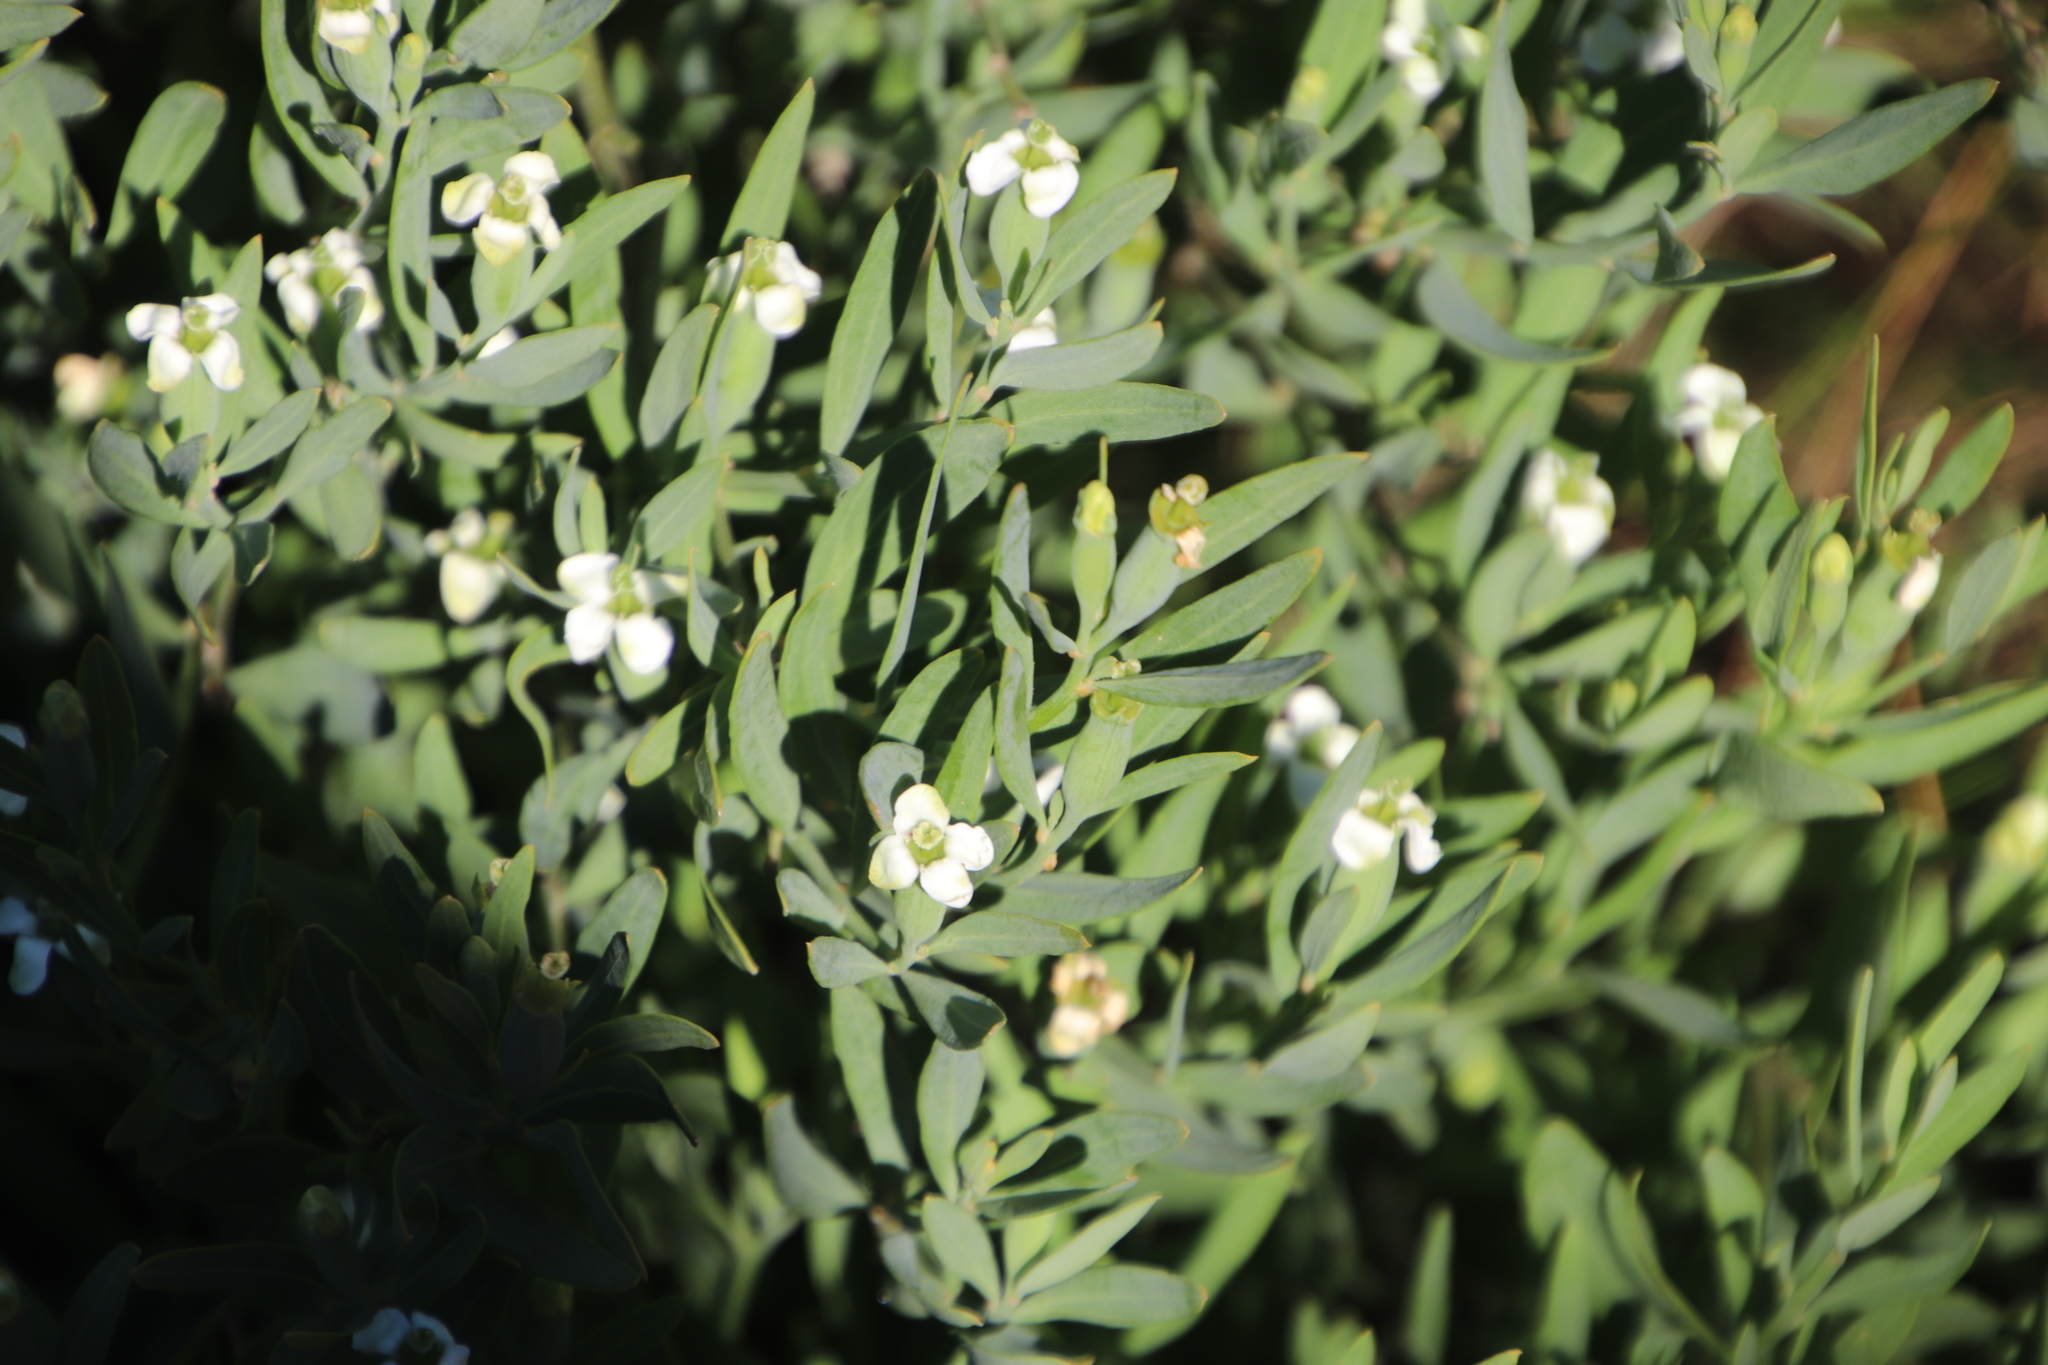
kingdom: Plantae
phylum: Tracheophyta
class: Magnoliopsida
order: Solanales
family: Montiniaceae
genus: Montinia
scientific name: Montinia caryophyllacea
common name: Wild clove-bush
